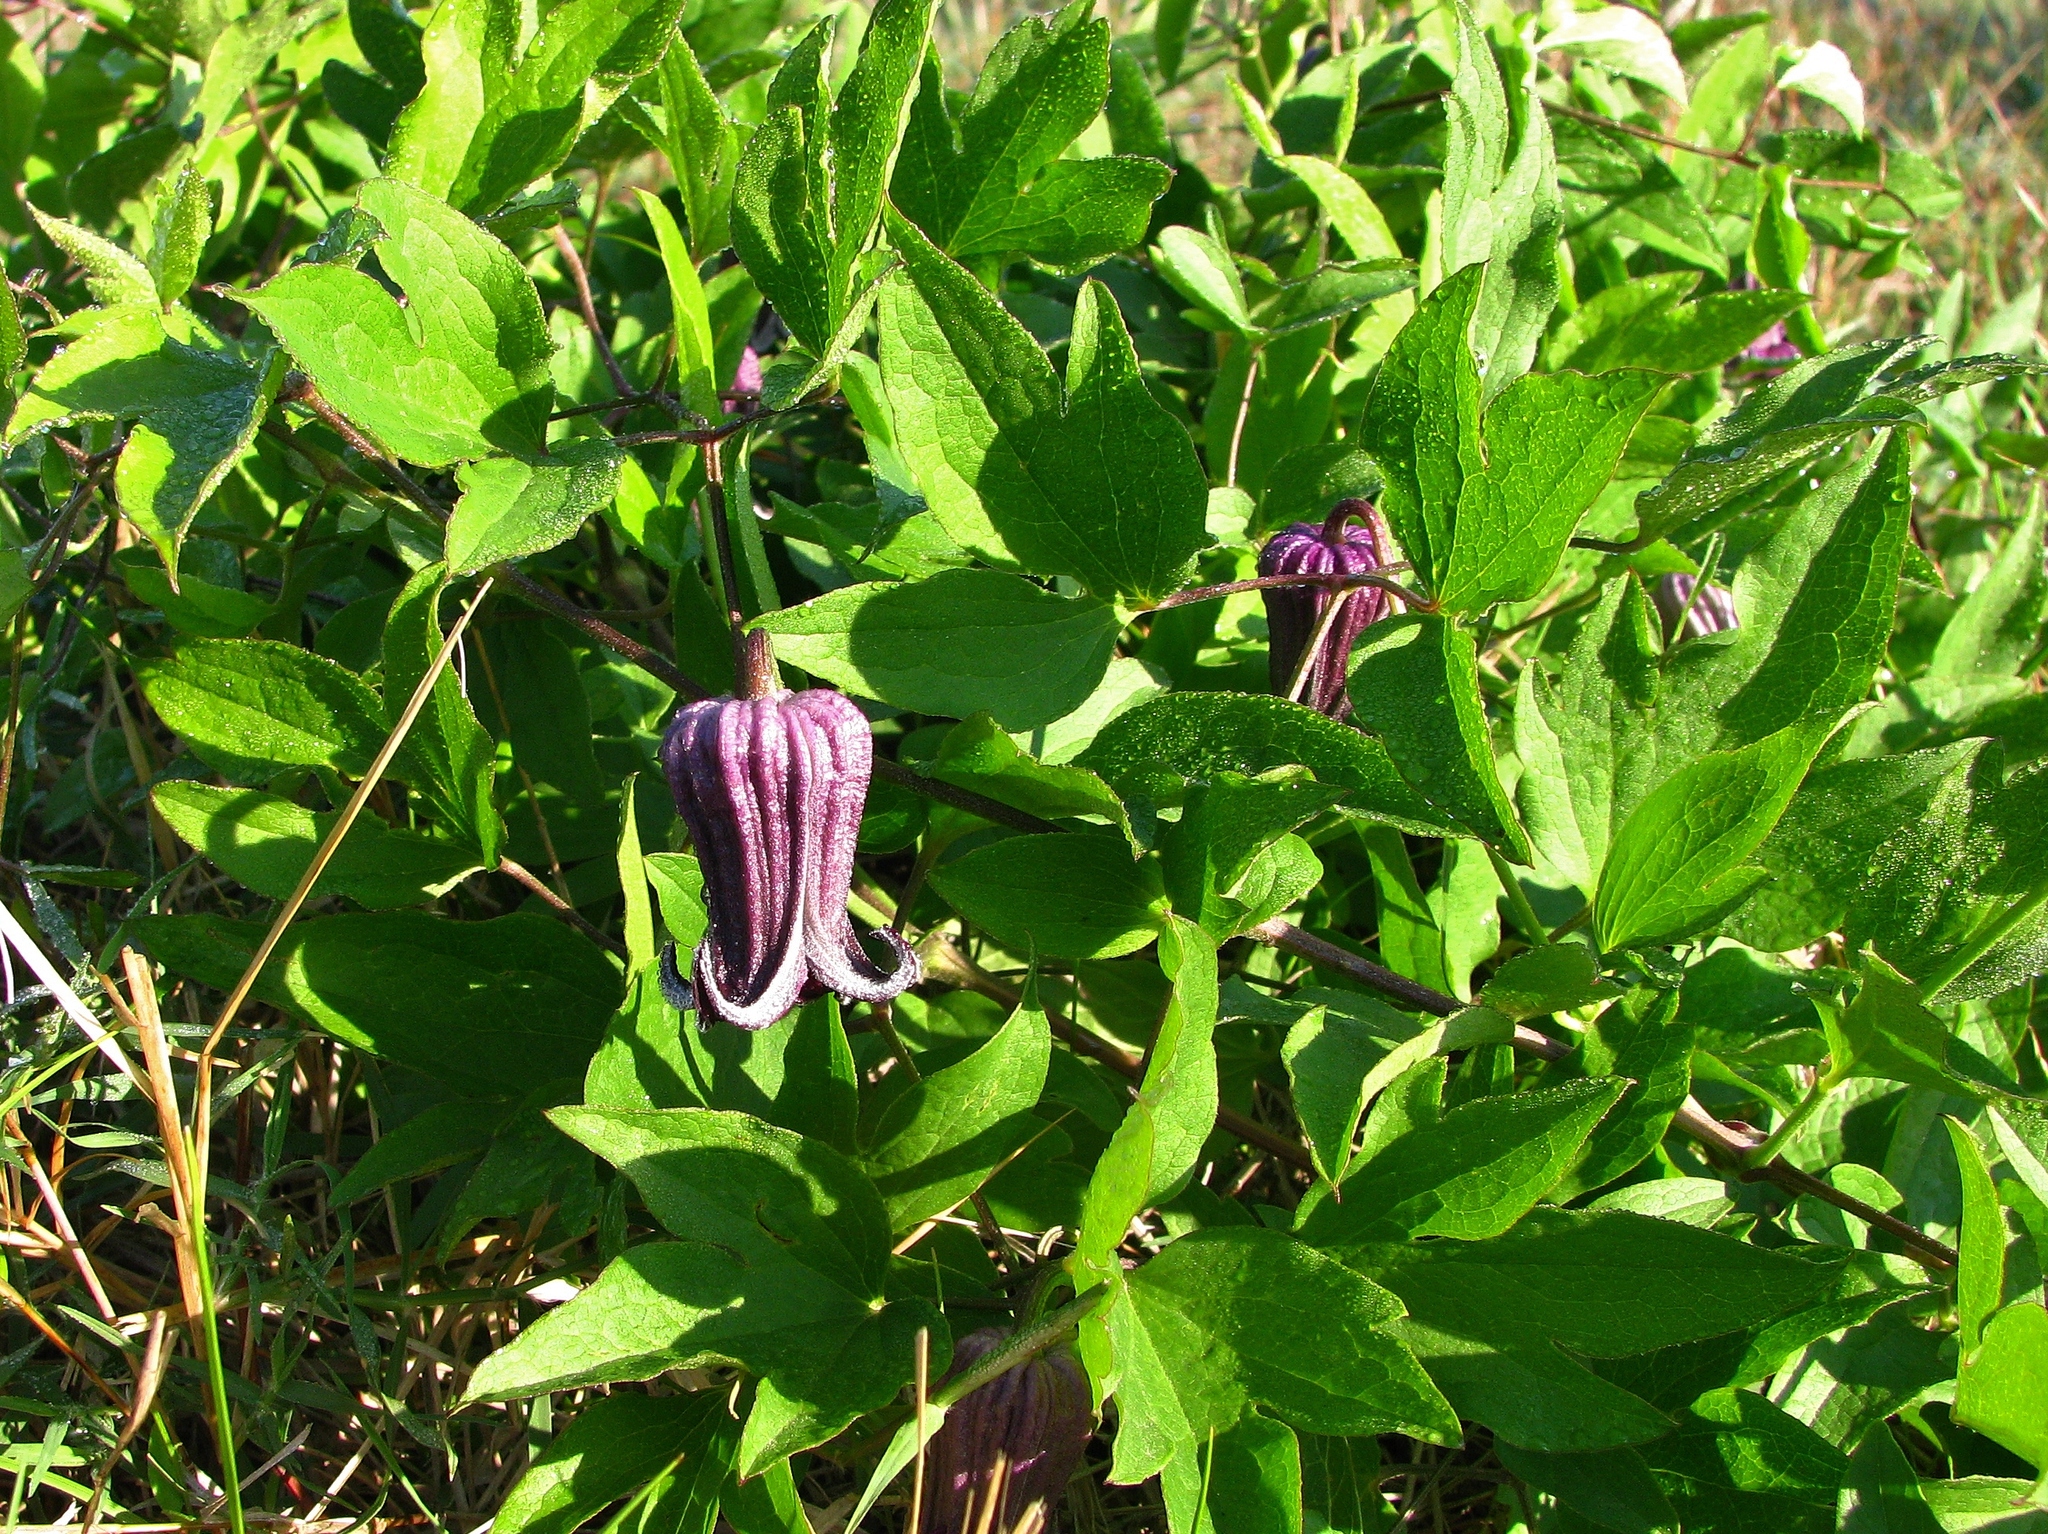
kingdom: Plantae
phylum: Tracheophyta
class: Magnoliopsida
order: Ranunculales
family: Ranunculaceae
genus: Clematis
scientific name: Clematis pitcheri
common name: Bellflower clematis
